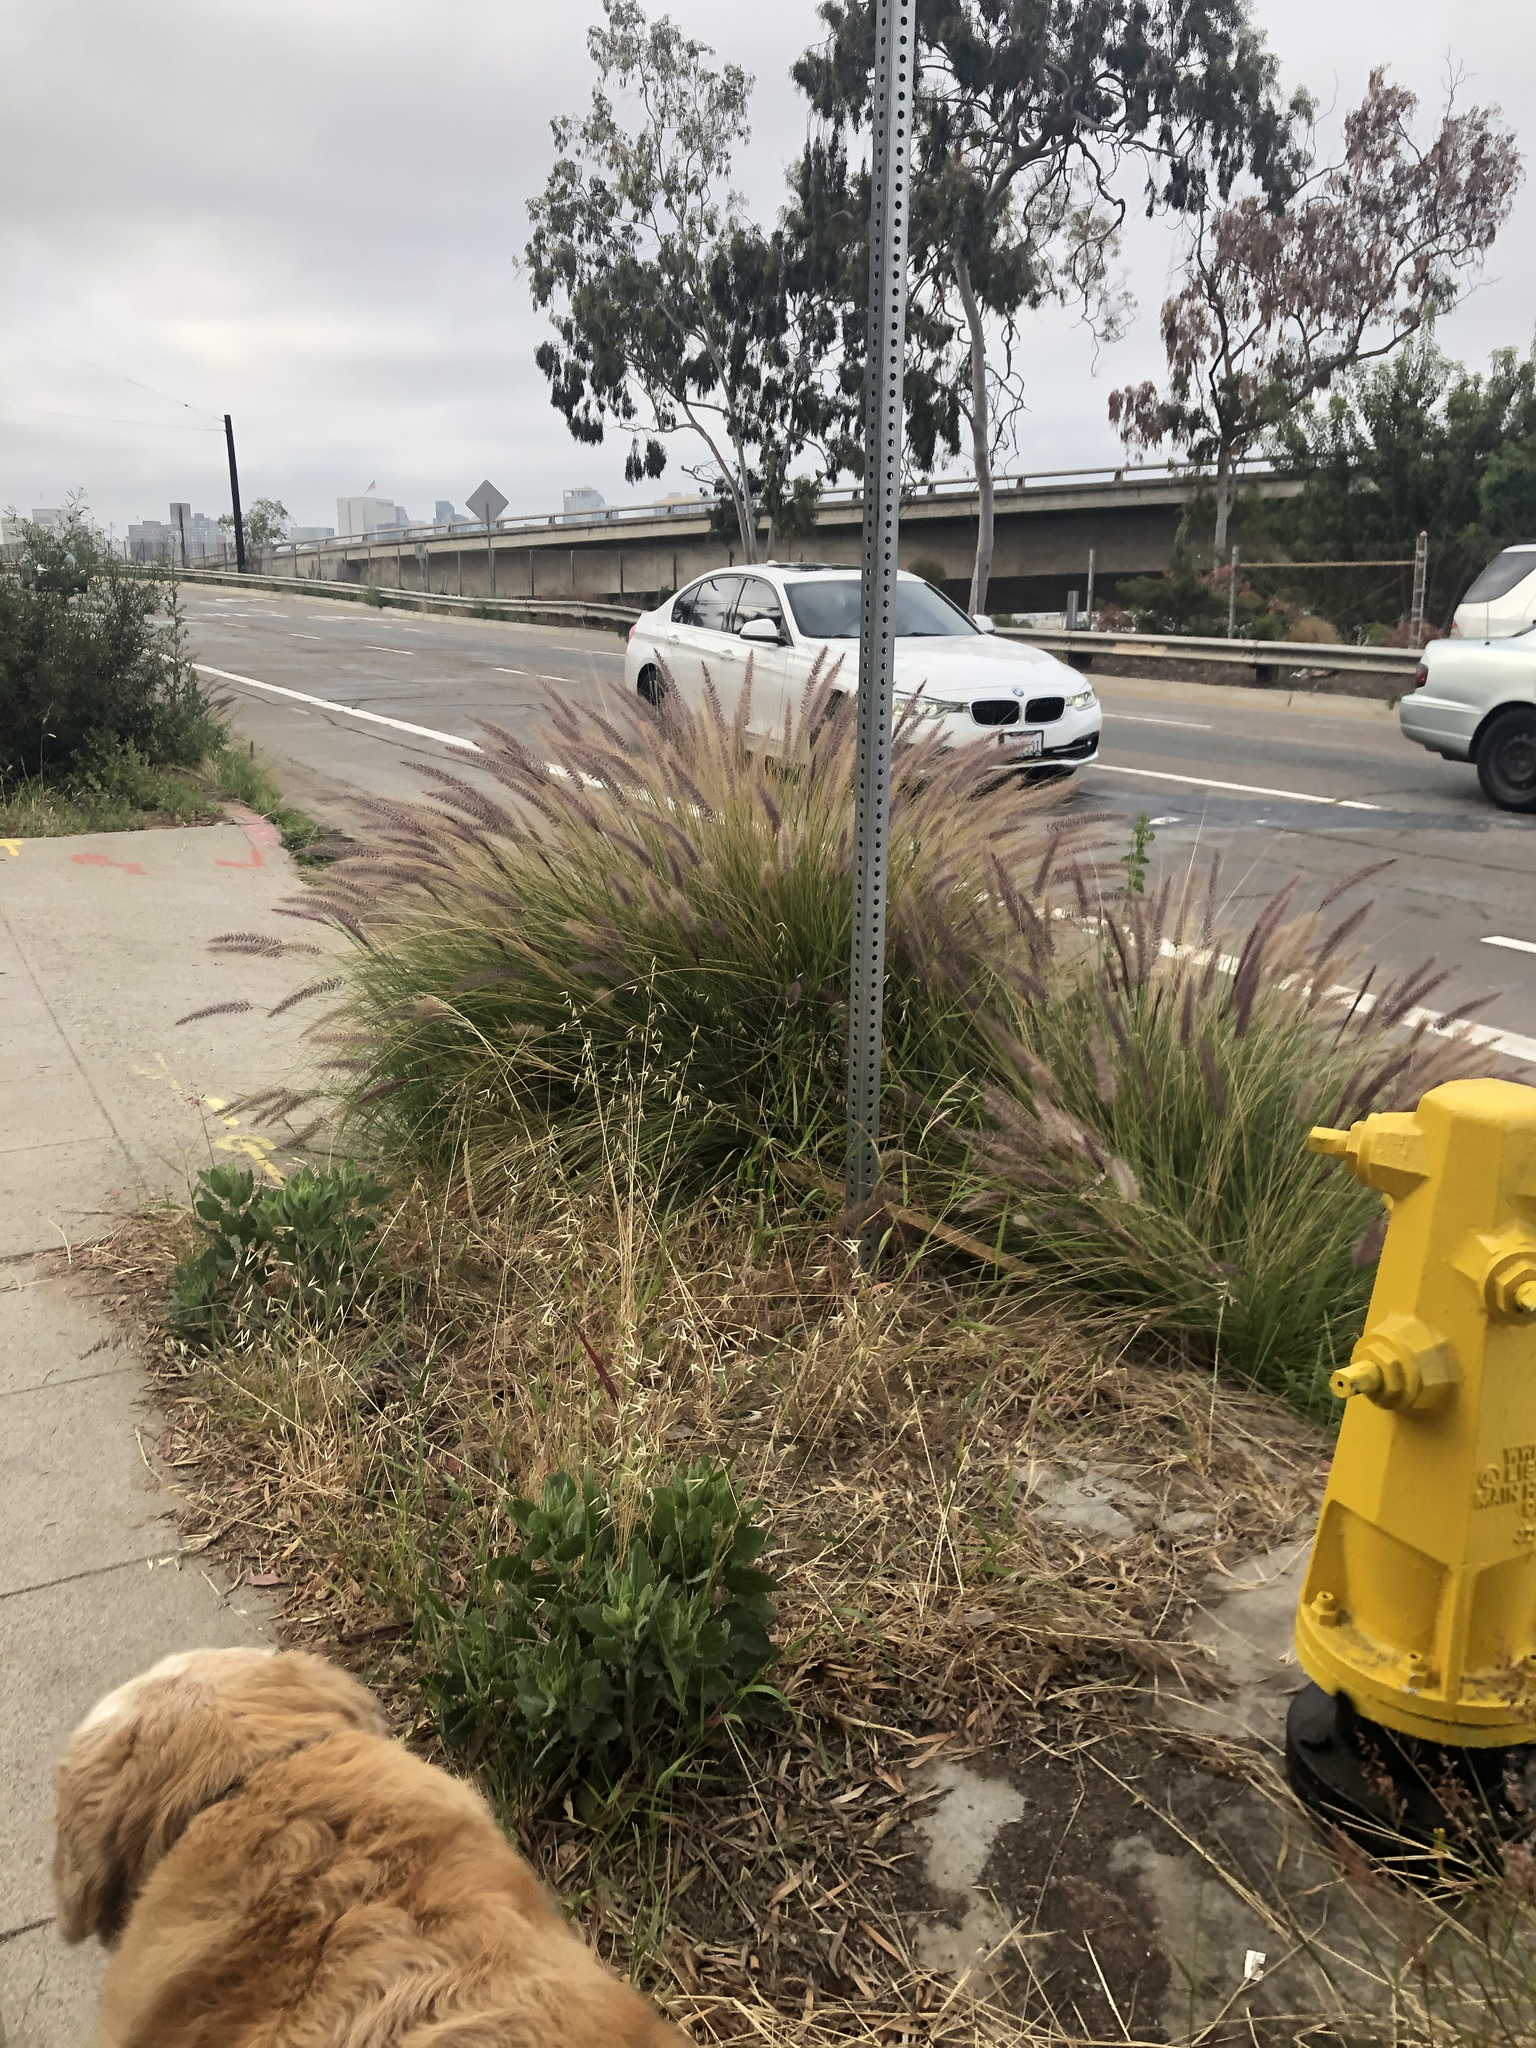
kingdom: Plantae
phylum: Tracheophyta
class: Liliopsida
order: Poales
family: Poaceae
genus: Cenchrus
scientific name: Cenchrus setaceus
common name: Crimson fountaingrass
